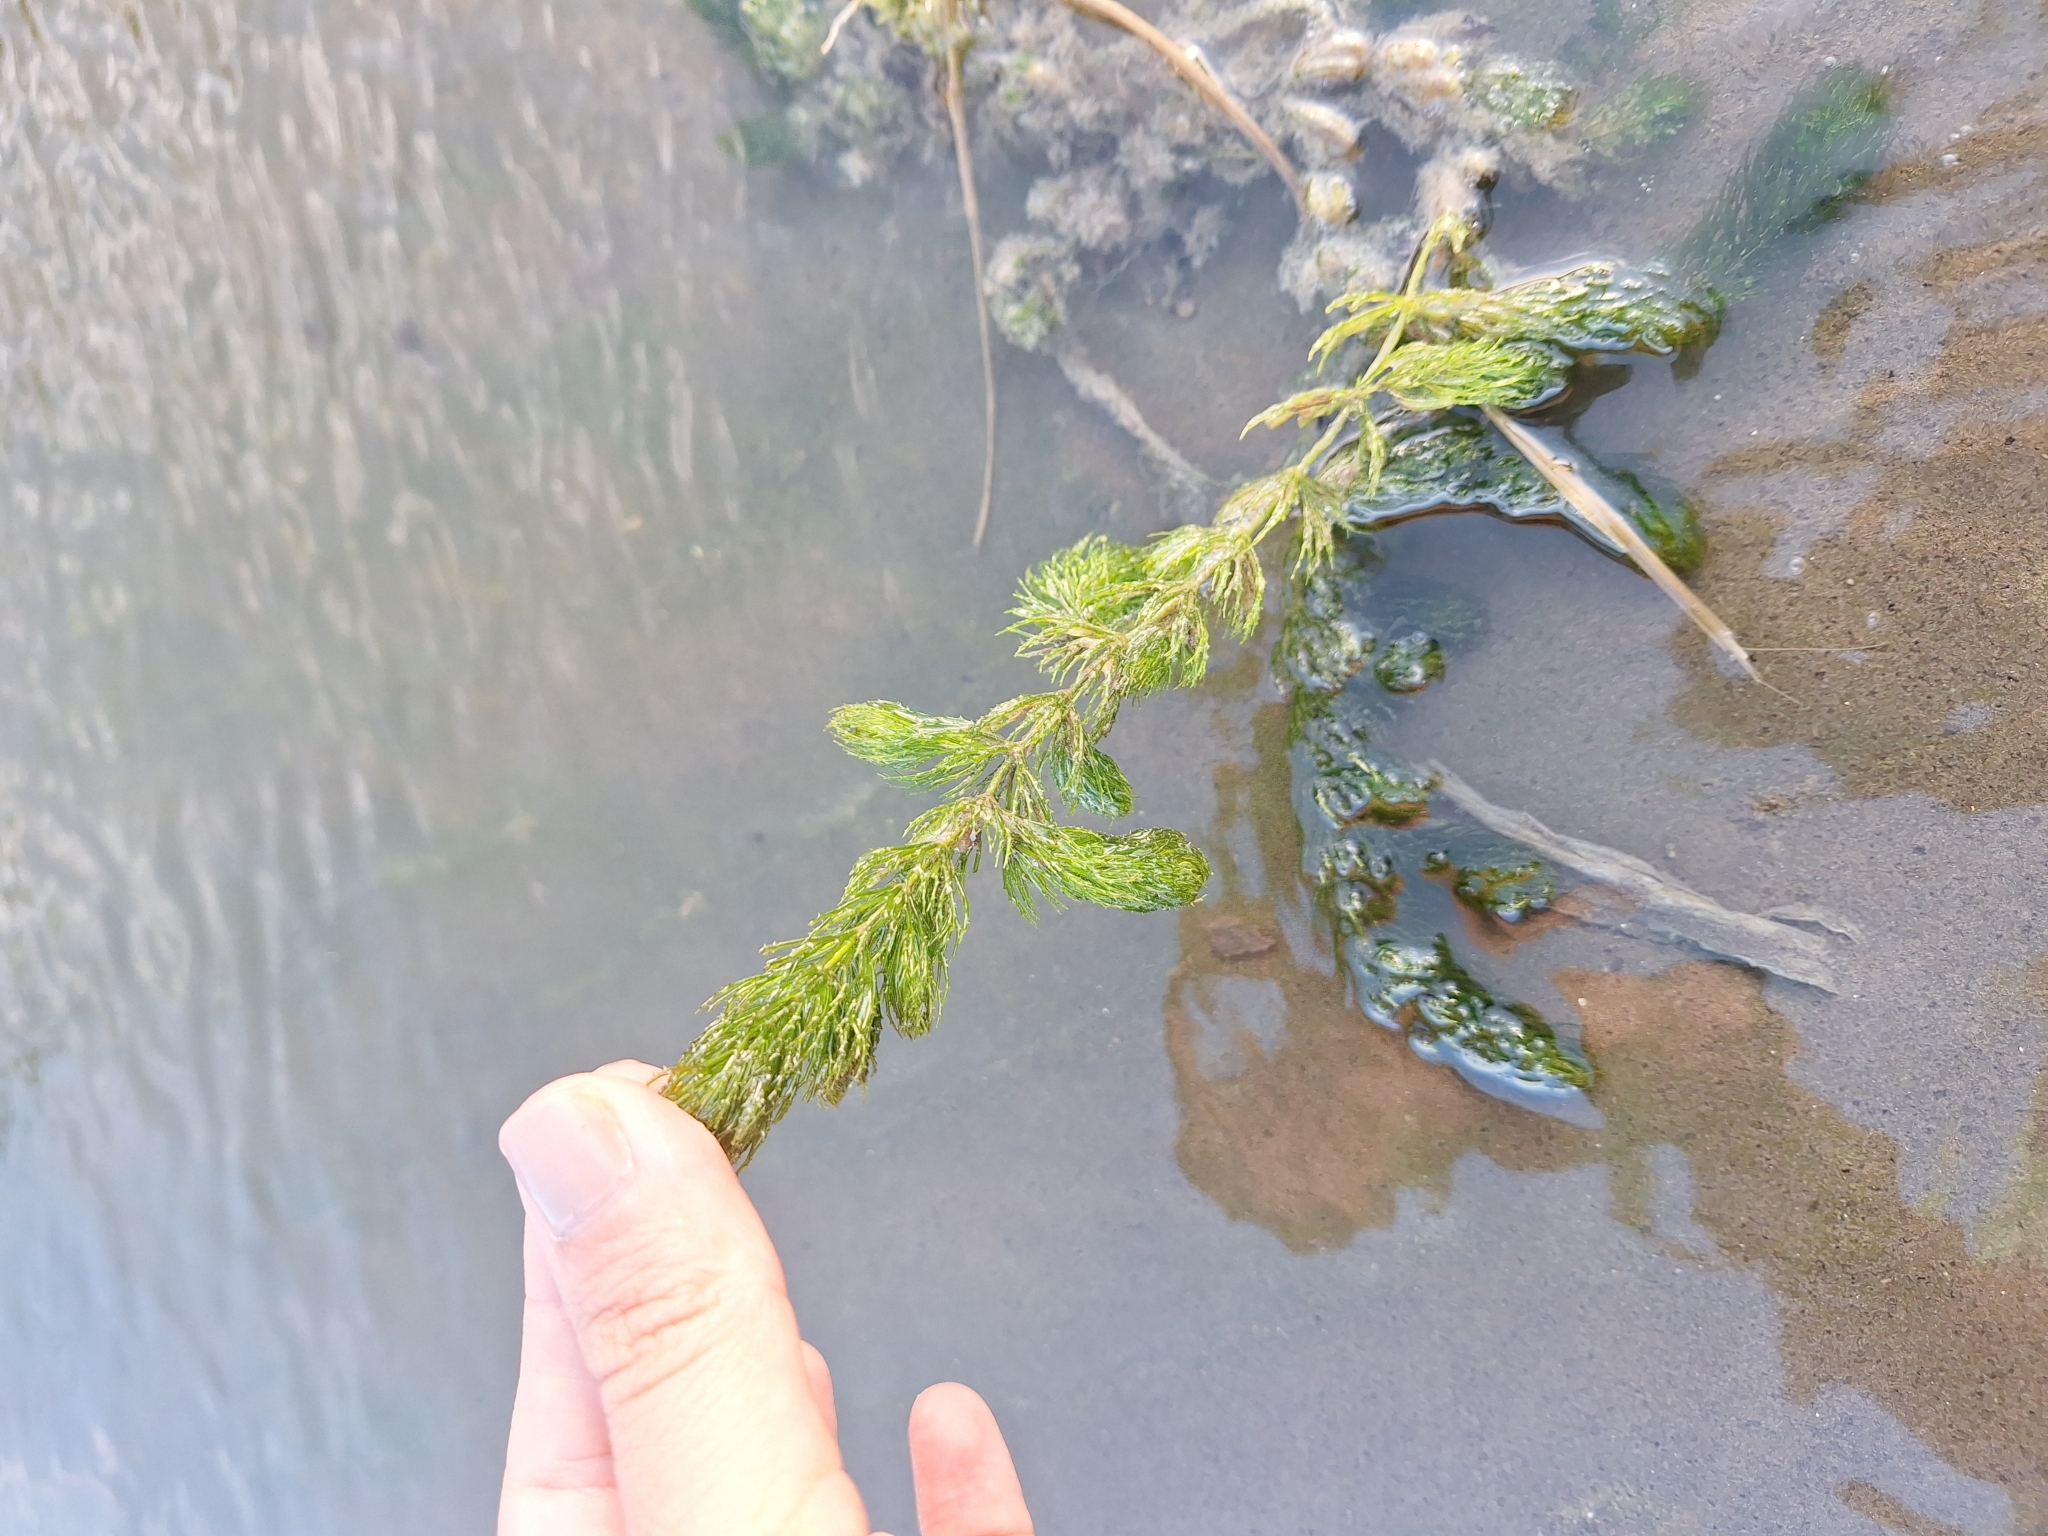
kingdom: Plantae
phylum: Tracheophyta
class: Magnoliopsida
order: Ceratophyllales
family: Ceratophyllaceae
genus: Ceratophyllum
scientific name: Ceratophyllum demersum
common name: Rigid hornwort
